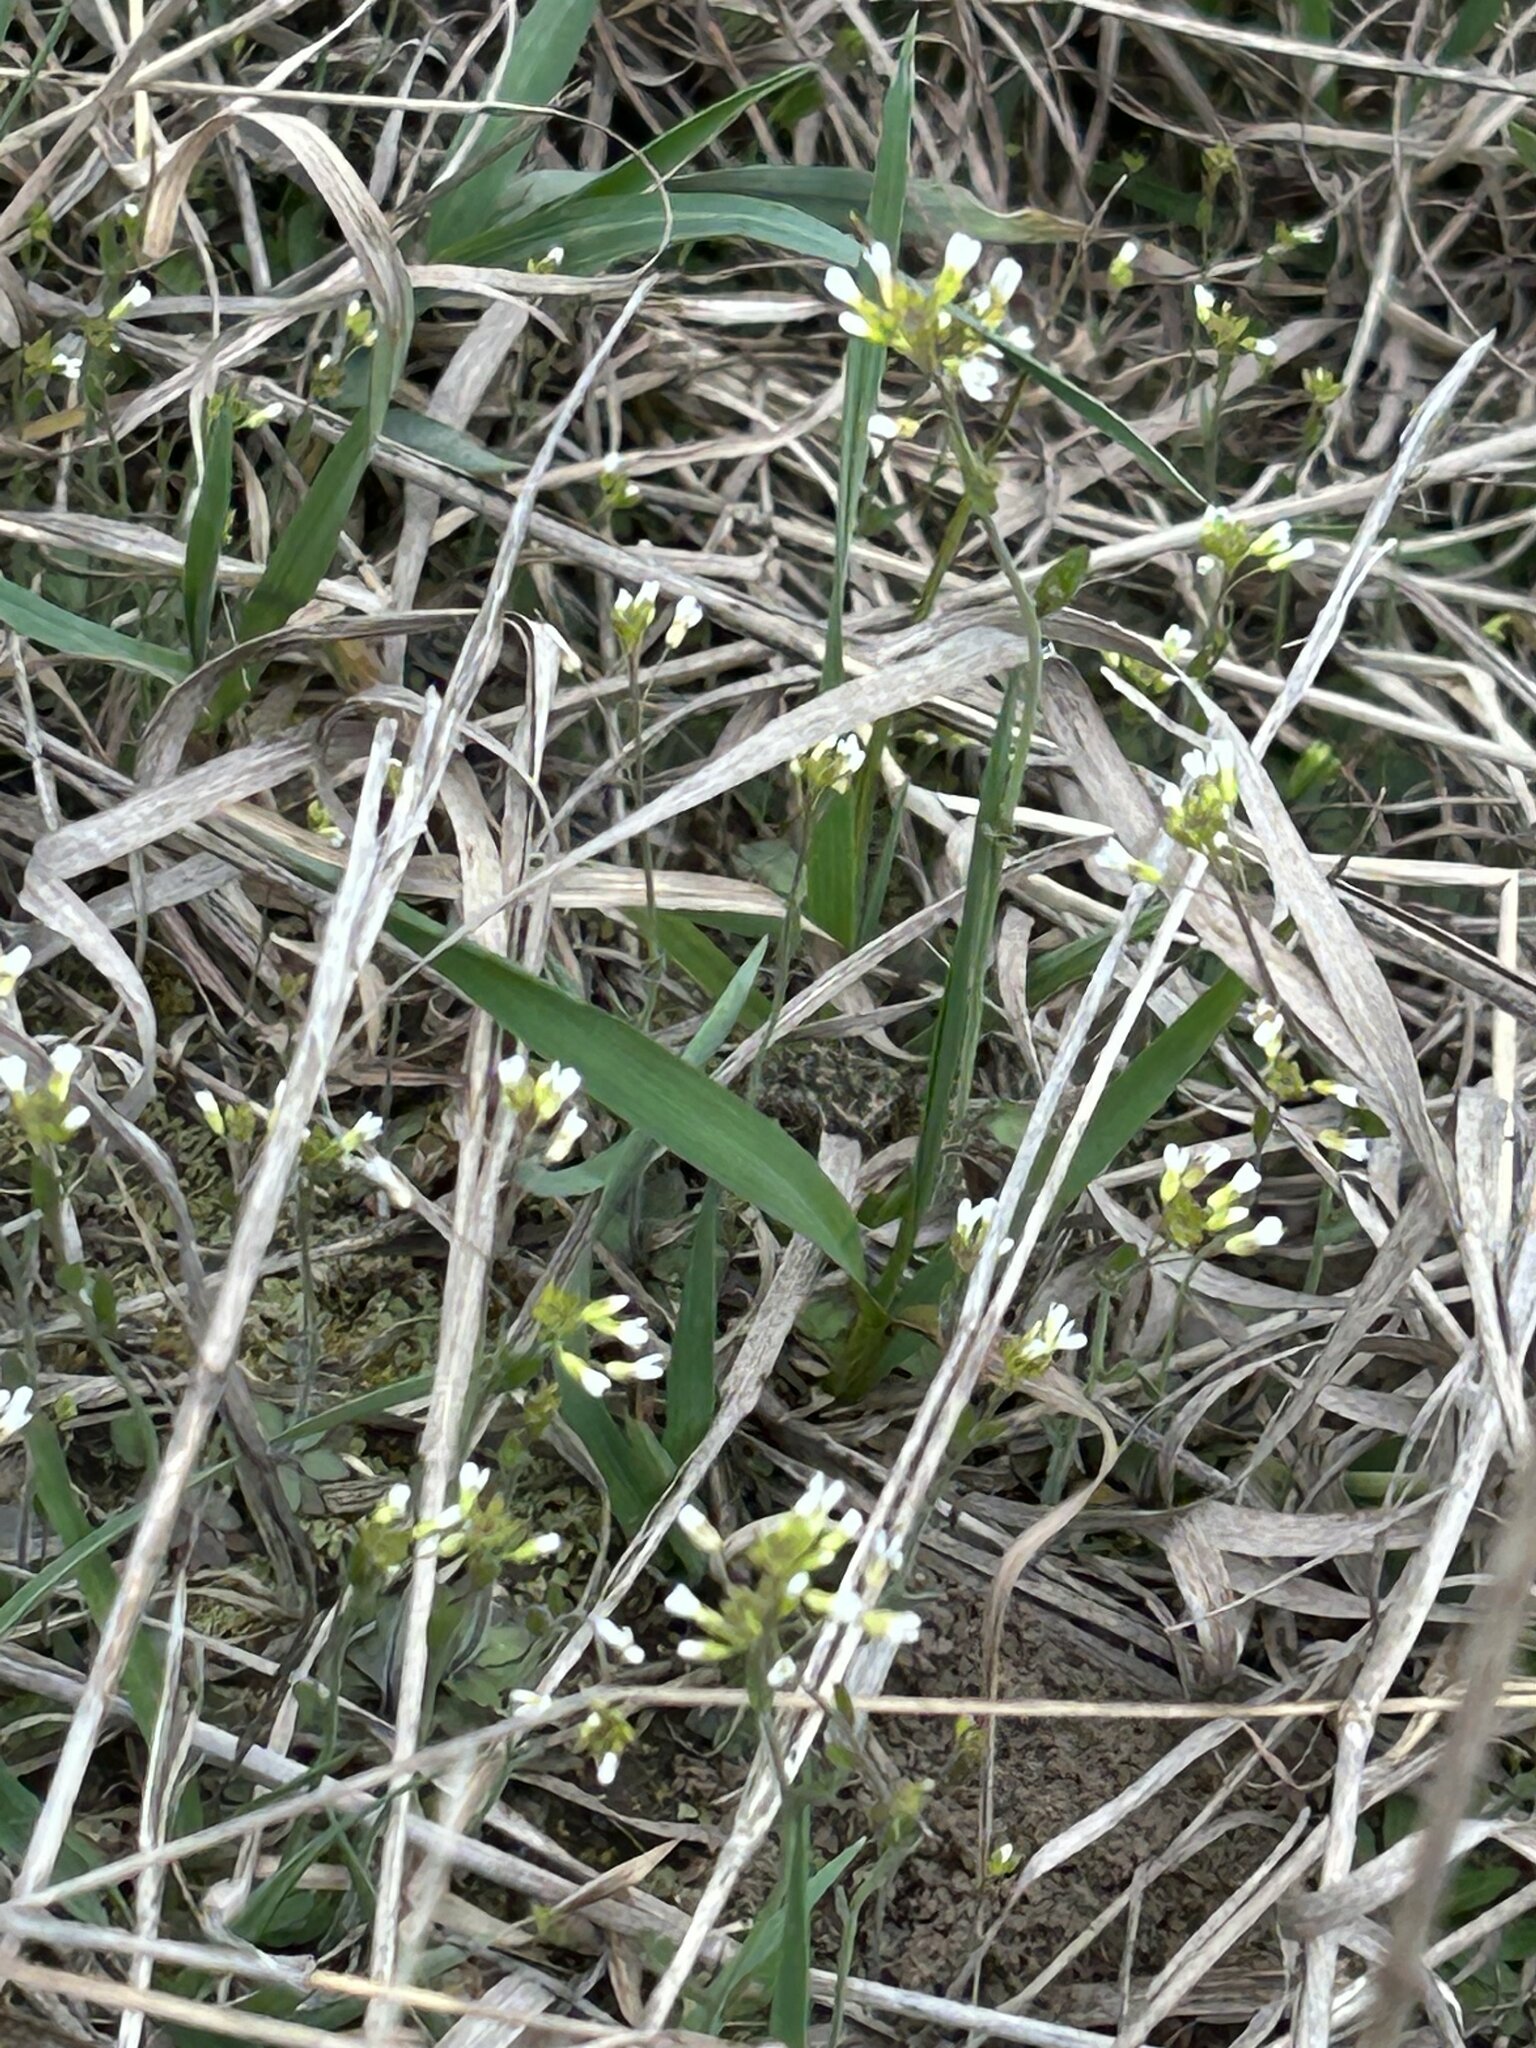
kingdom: Plantae
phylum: Tracheophyta
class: Magnoliopsida
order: Brassicales
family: Brassicaceae
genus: Arabidopsis
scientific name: Arabidopsis thaliana
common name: Thale cress
